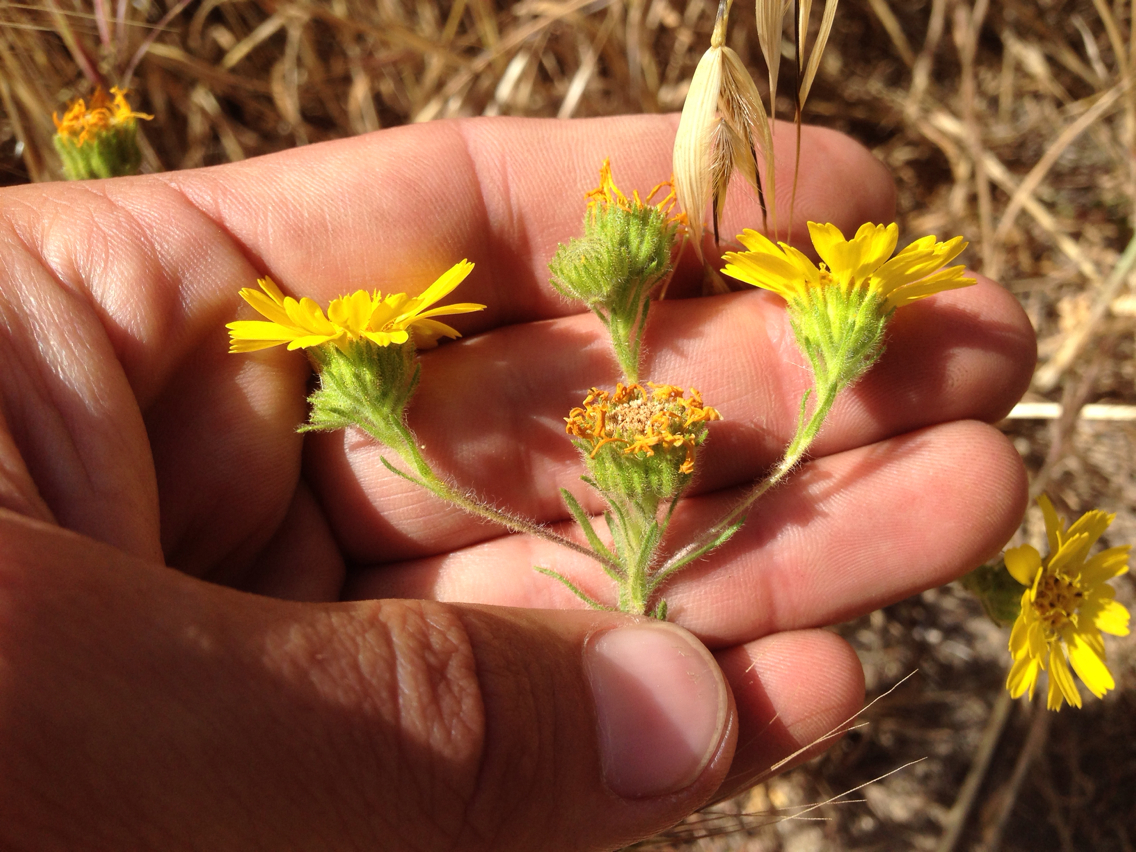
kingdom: Plantae
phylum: Tracheophyta
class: Magnoliopsida
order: Asterales
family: Asteraceae
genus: Deinandra
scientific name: Deinandra corymbosa
